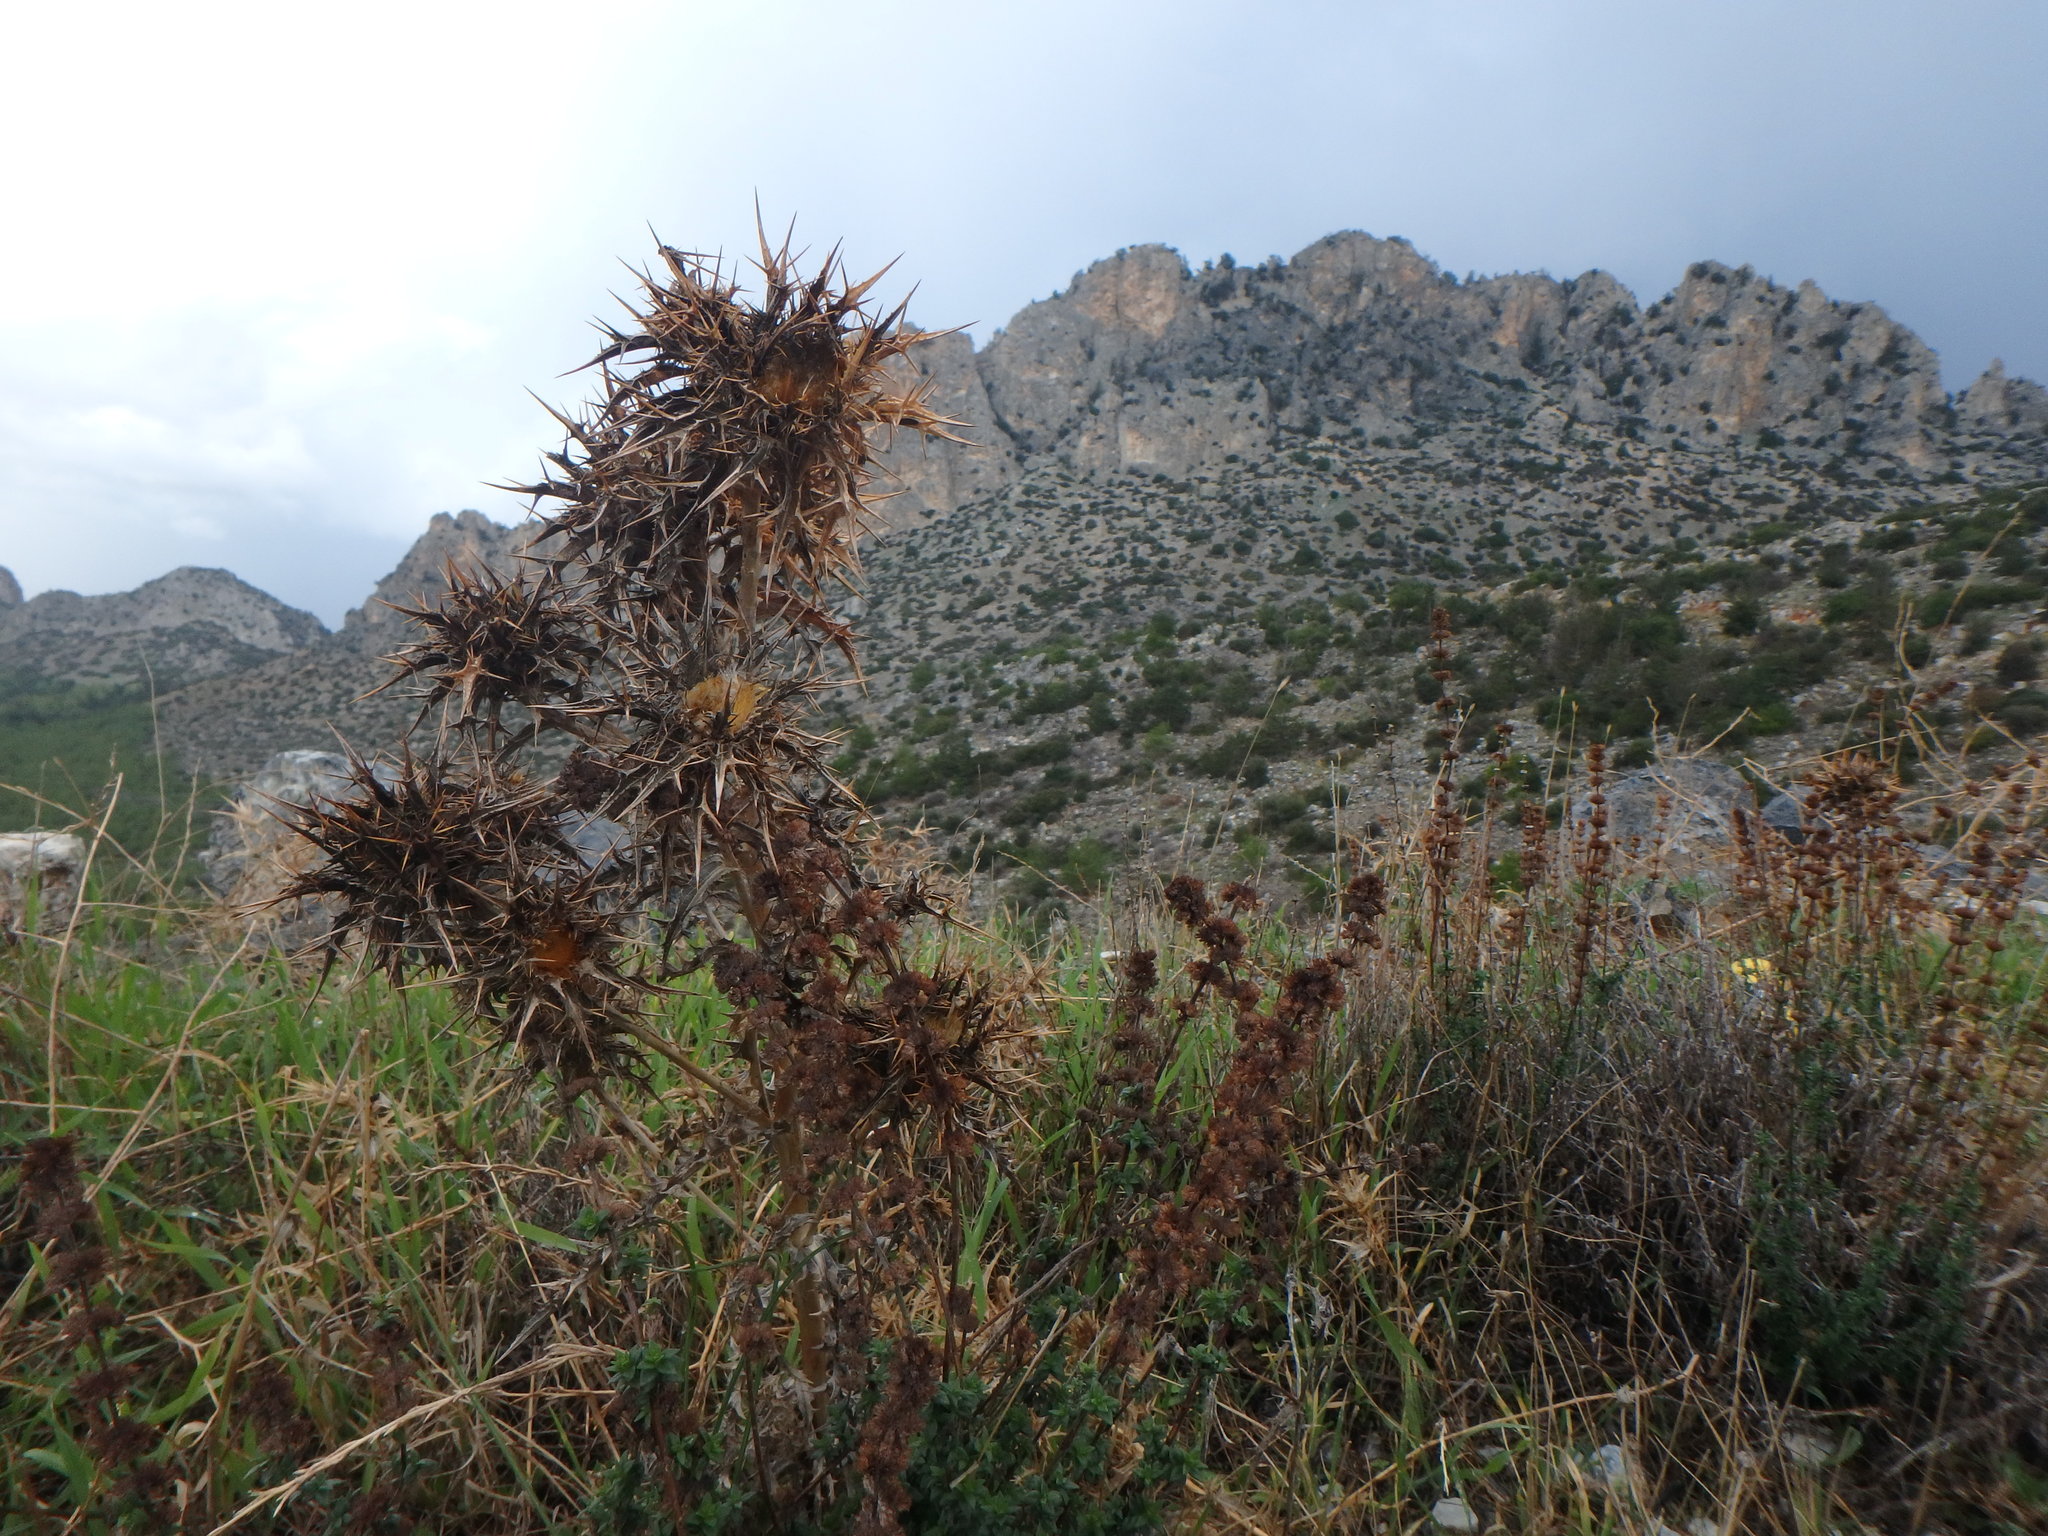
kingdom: Plantae
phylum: Tracheophyta
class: Magnoliopsida
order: Asterales
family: Asteraceae
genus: Carlina
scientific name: Carlina libanotica
